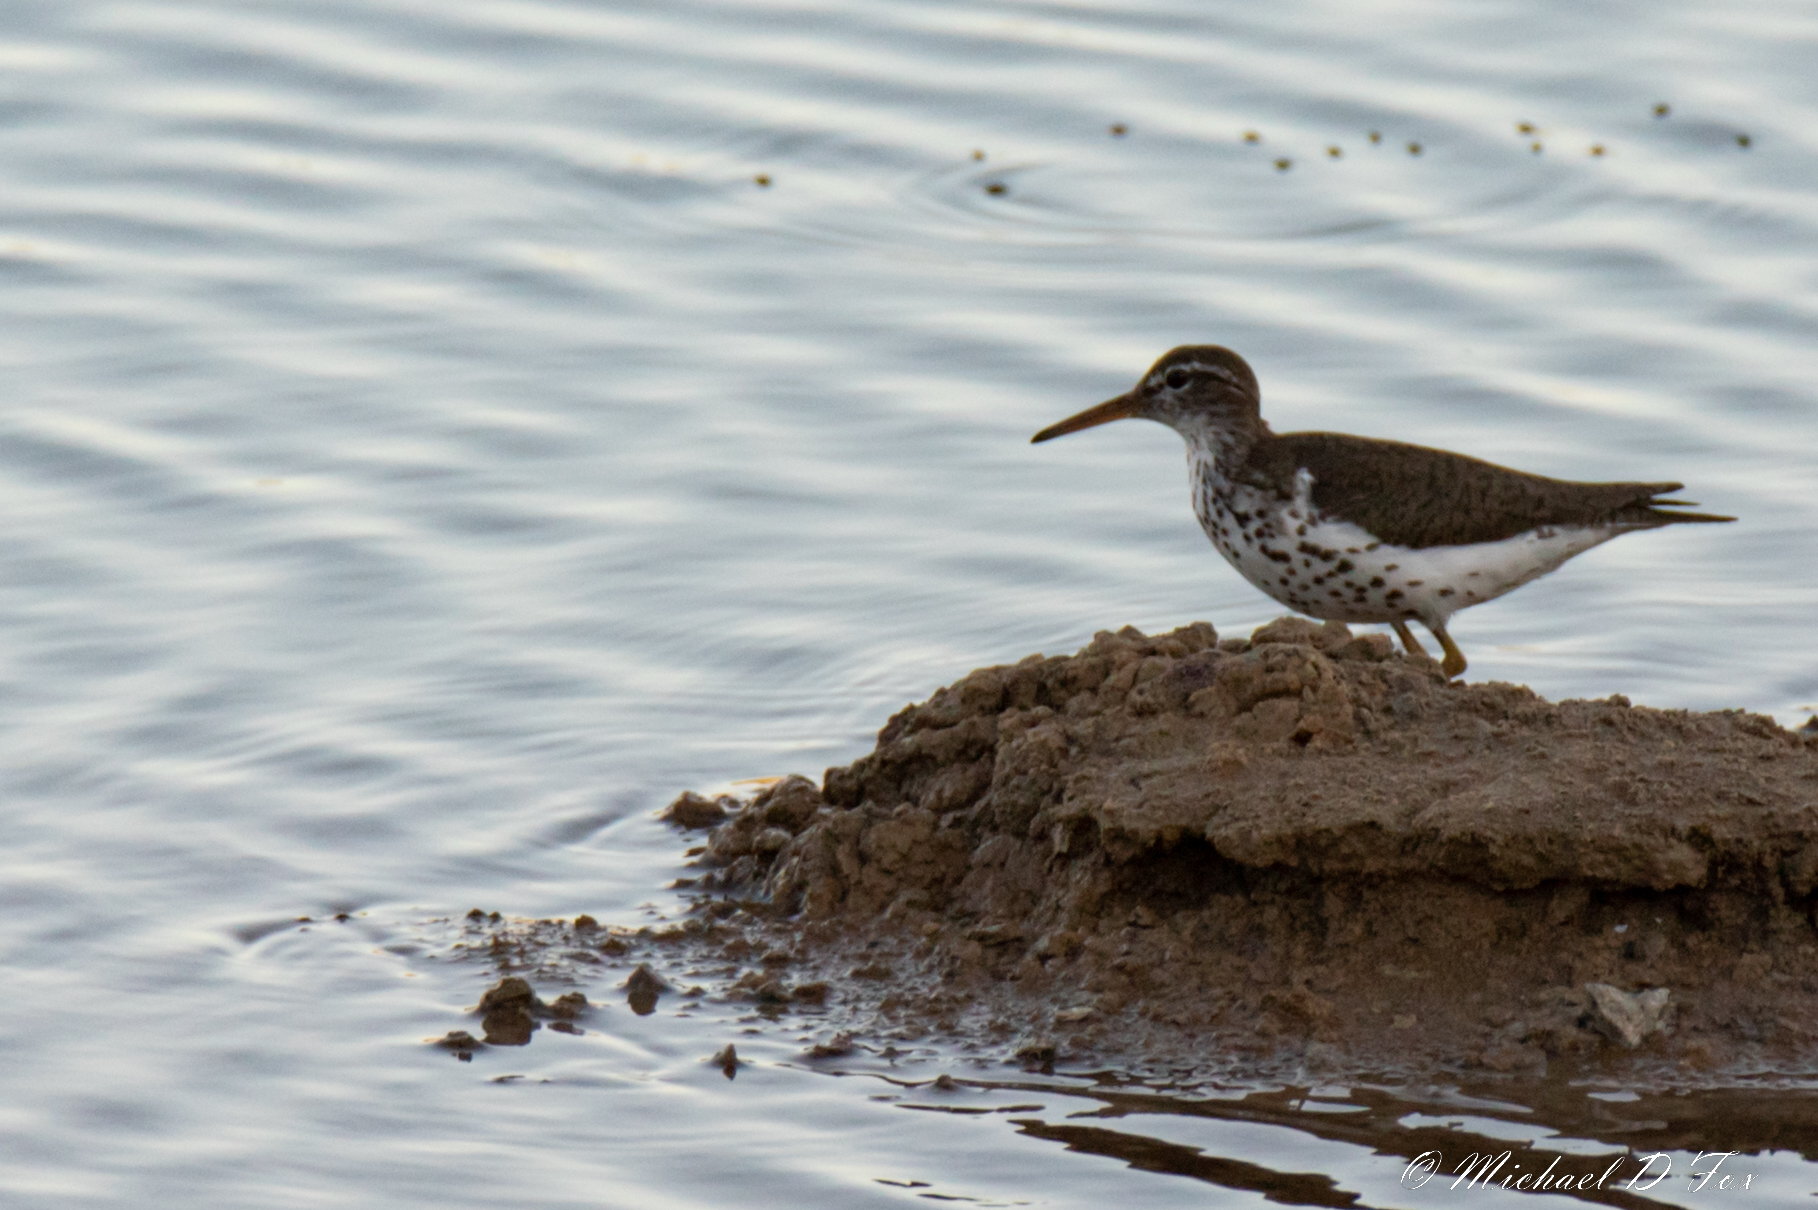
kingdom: Animalia
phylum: Chordata
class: Aves
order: Charadriiformes
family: Scolopacidae
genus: Actitis
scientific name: Actitis macularius
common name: Spotted sandpiper
